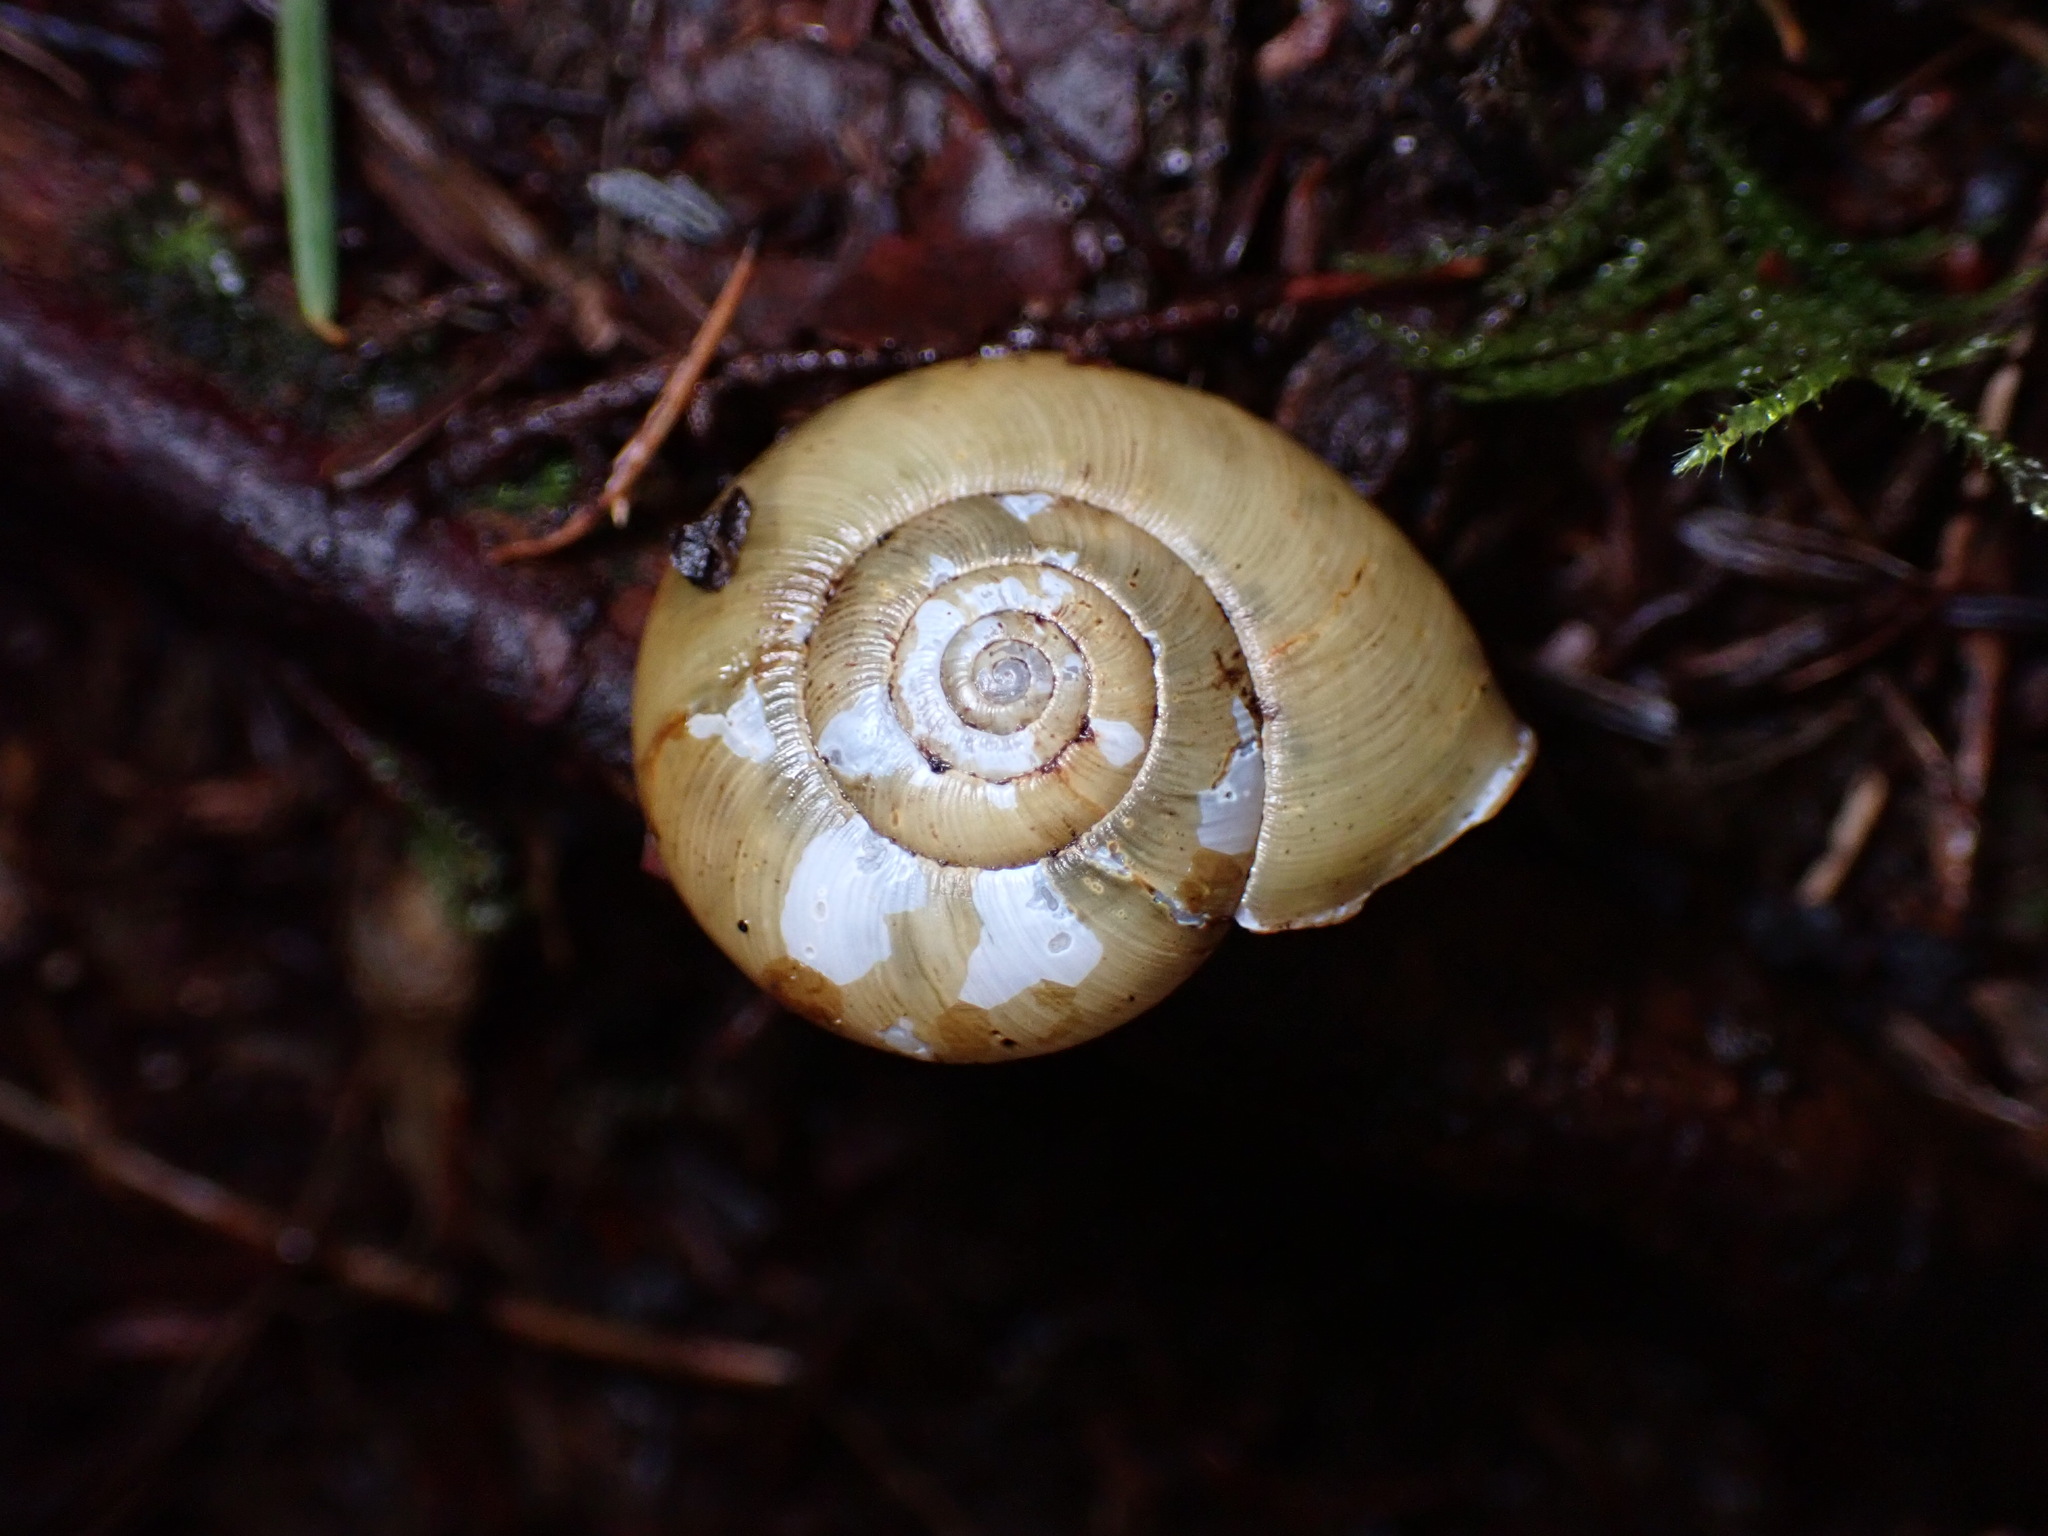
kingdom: Animalia
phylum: Mollusca
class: Gastropoda
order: Stylommatophora
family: Haplotrematidae
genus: Ancotrema
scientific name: Ancotrema sportella
